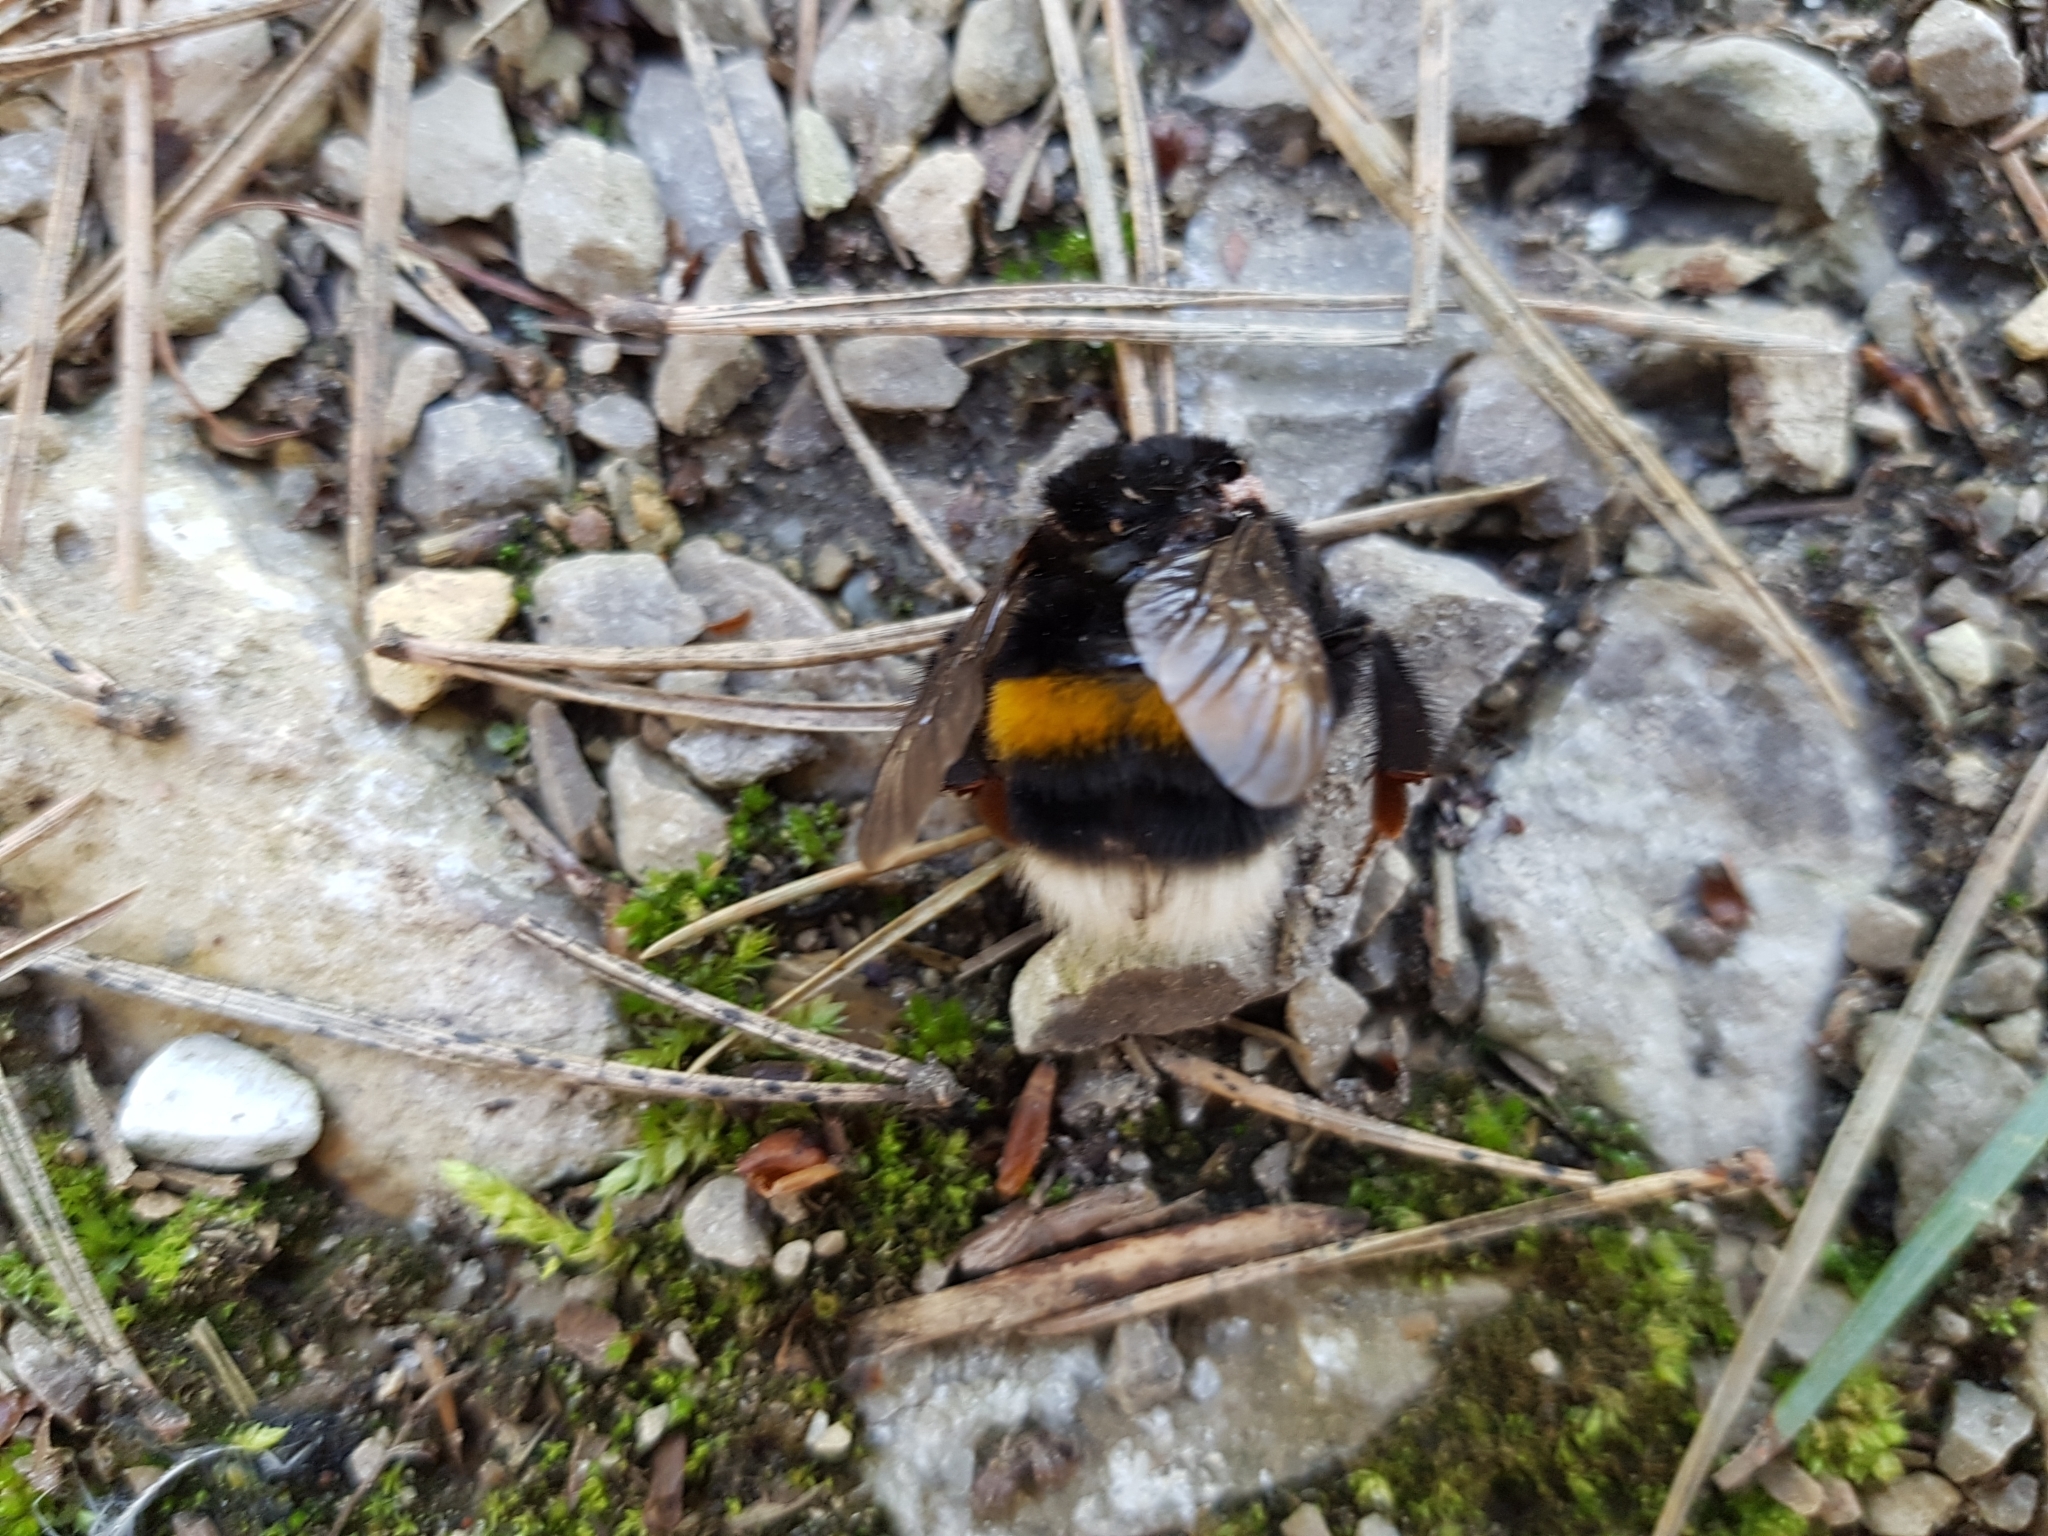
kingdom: Animalia
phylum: Arthropoda
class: Insecta
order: Hymenoptera
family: Apidae
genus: Bombus
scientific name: Bombus
